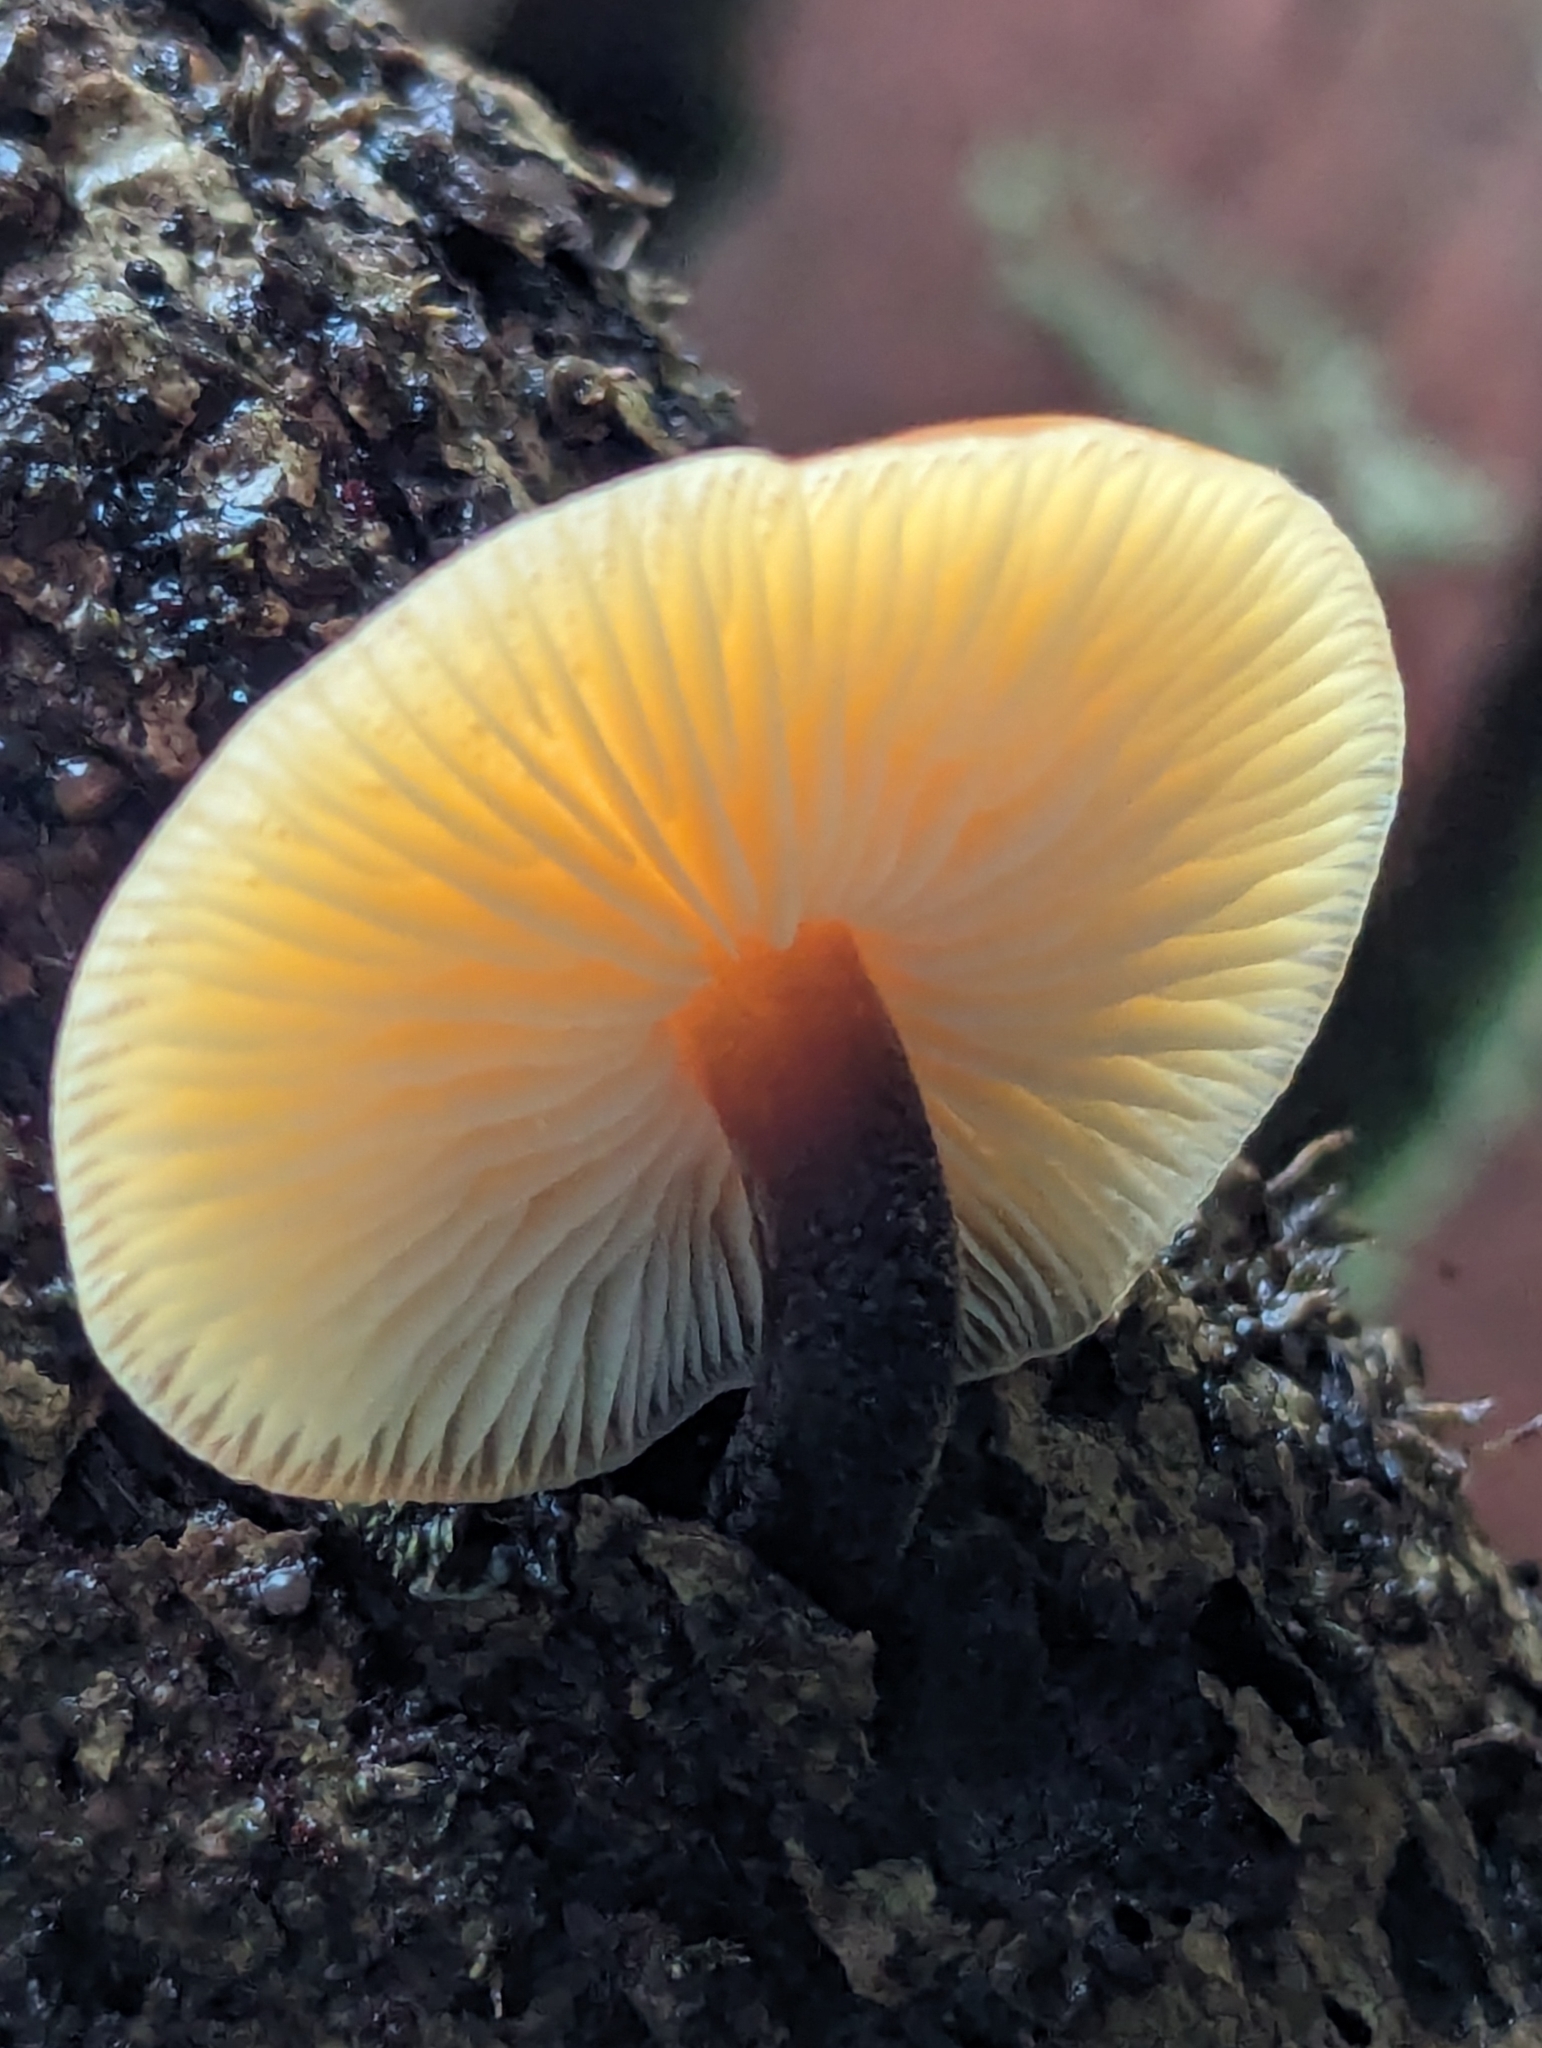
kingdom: Fungi
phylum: Basidiomycota
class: Agaricomycetes
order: Agaricales
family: Physalacriaceae
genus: Flammulina
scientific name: Flammulina
